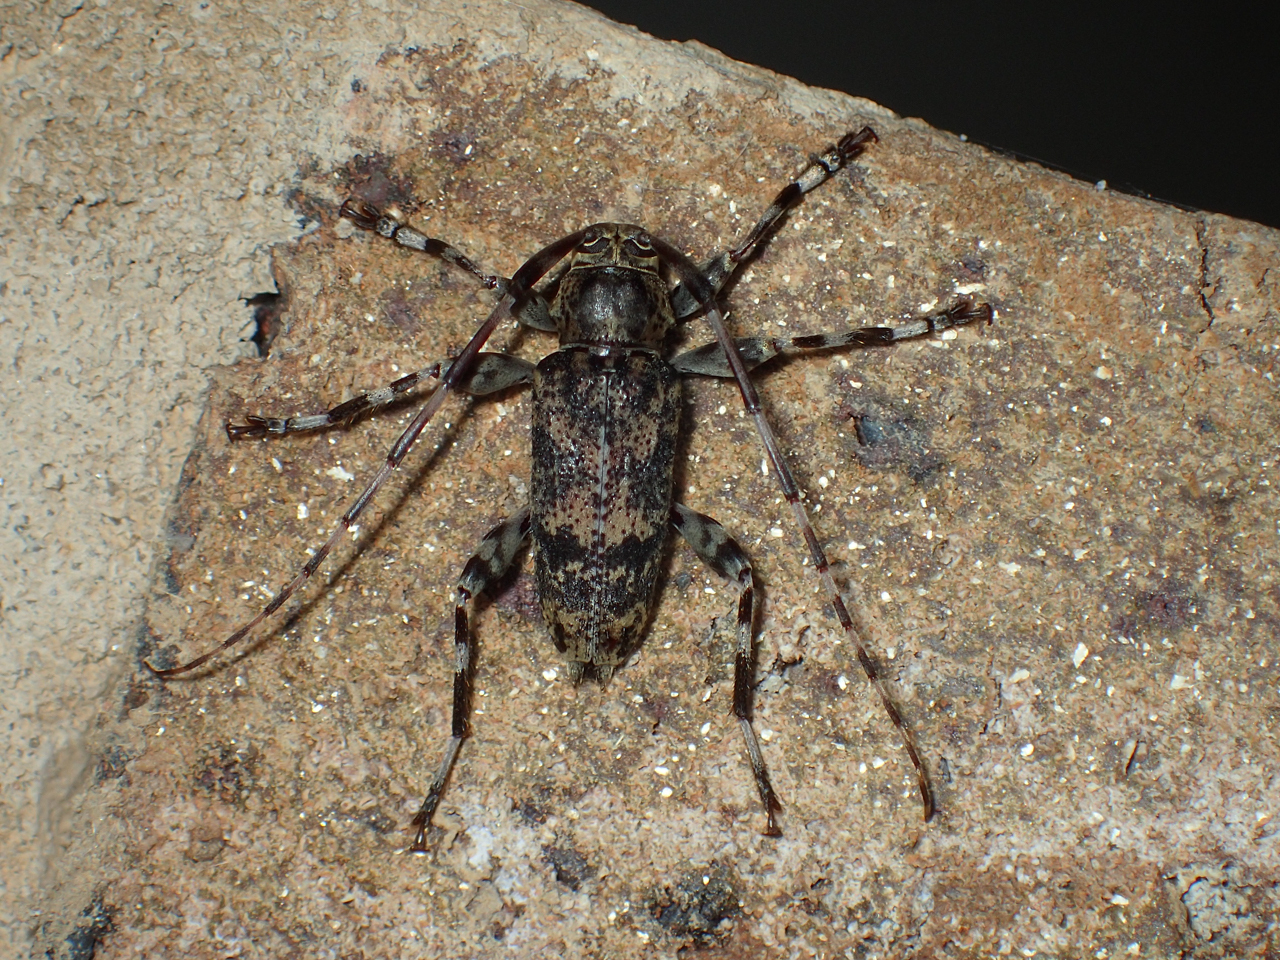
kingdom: Animalia
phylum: Arthropoda
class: Insecta
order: Coleoptera
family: Cerambycidae
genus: Graphisurus
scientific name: Graphisurus fasciatus
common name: Banded graphisurus
